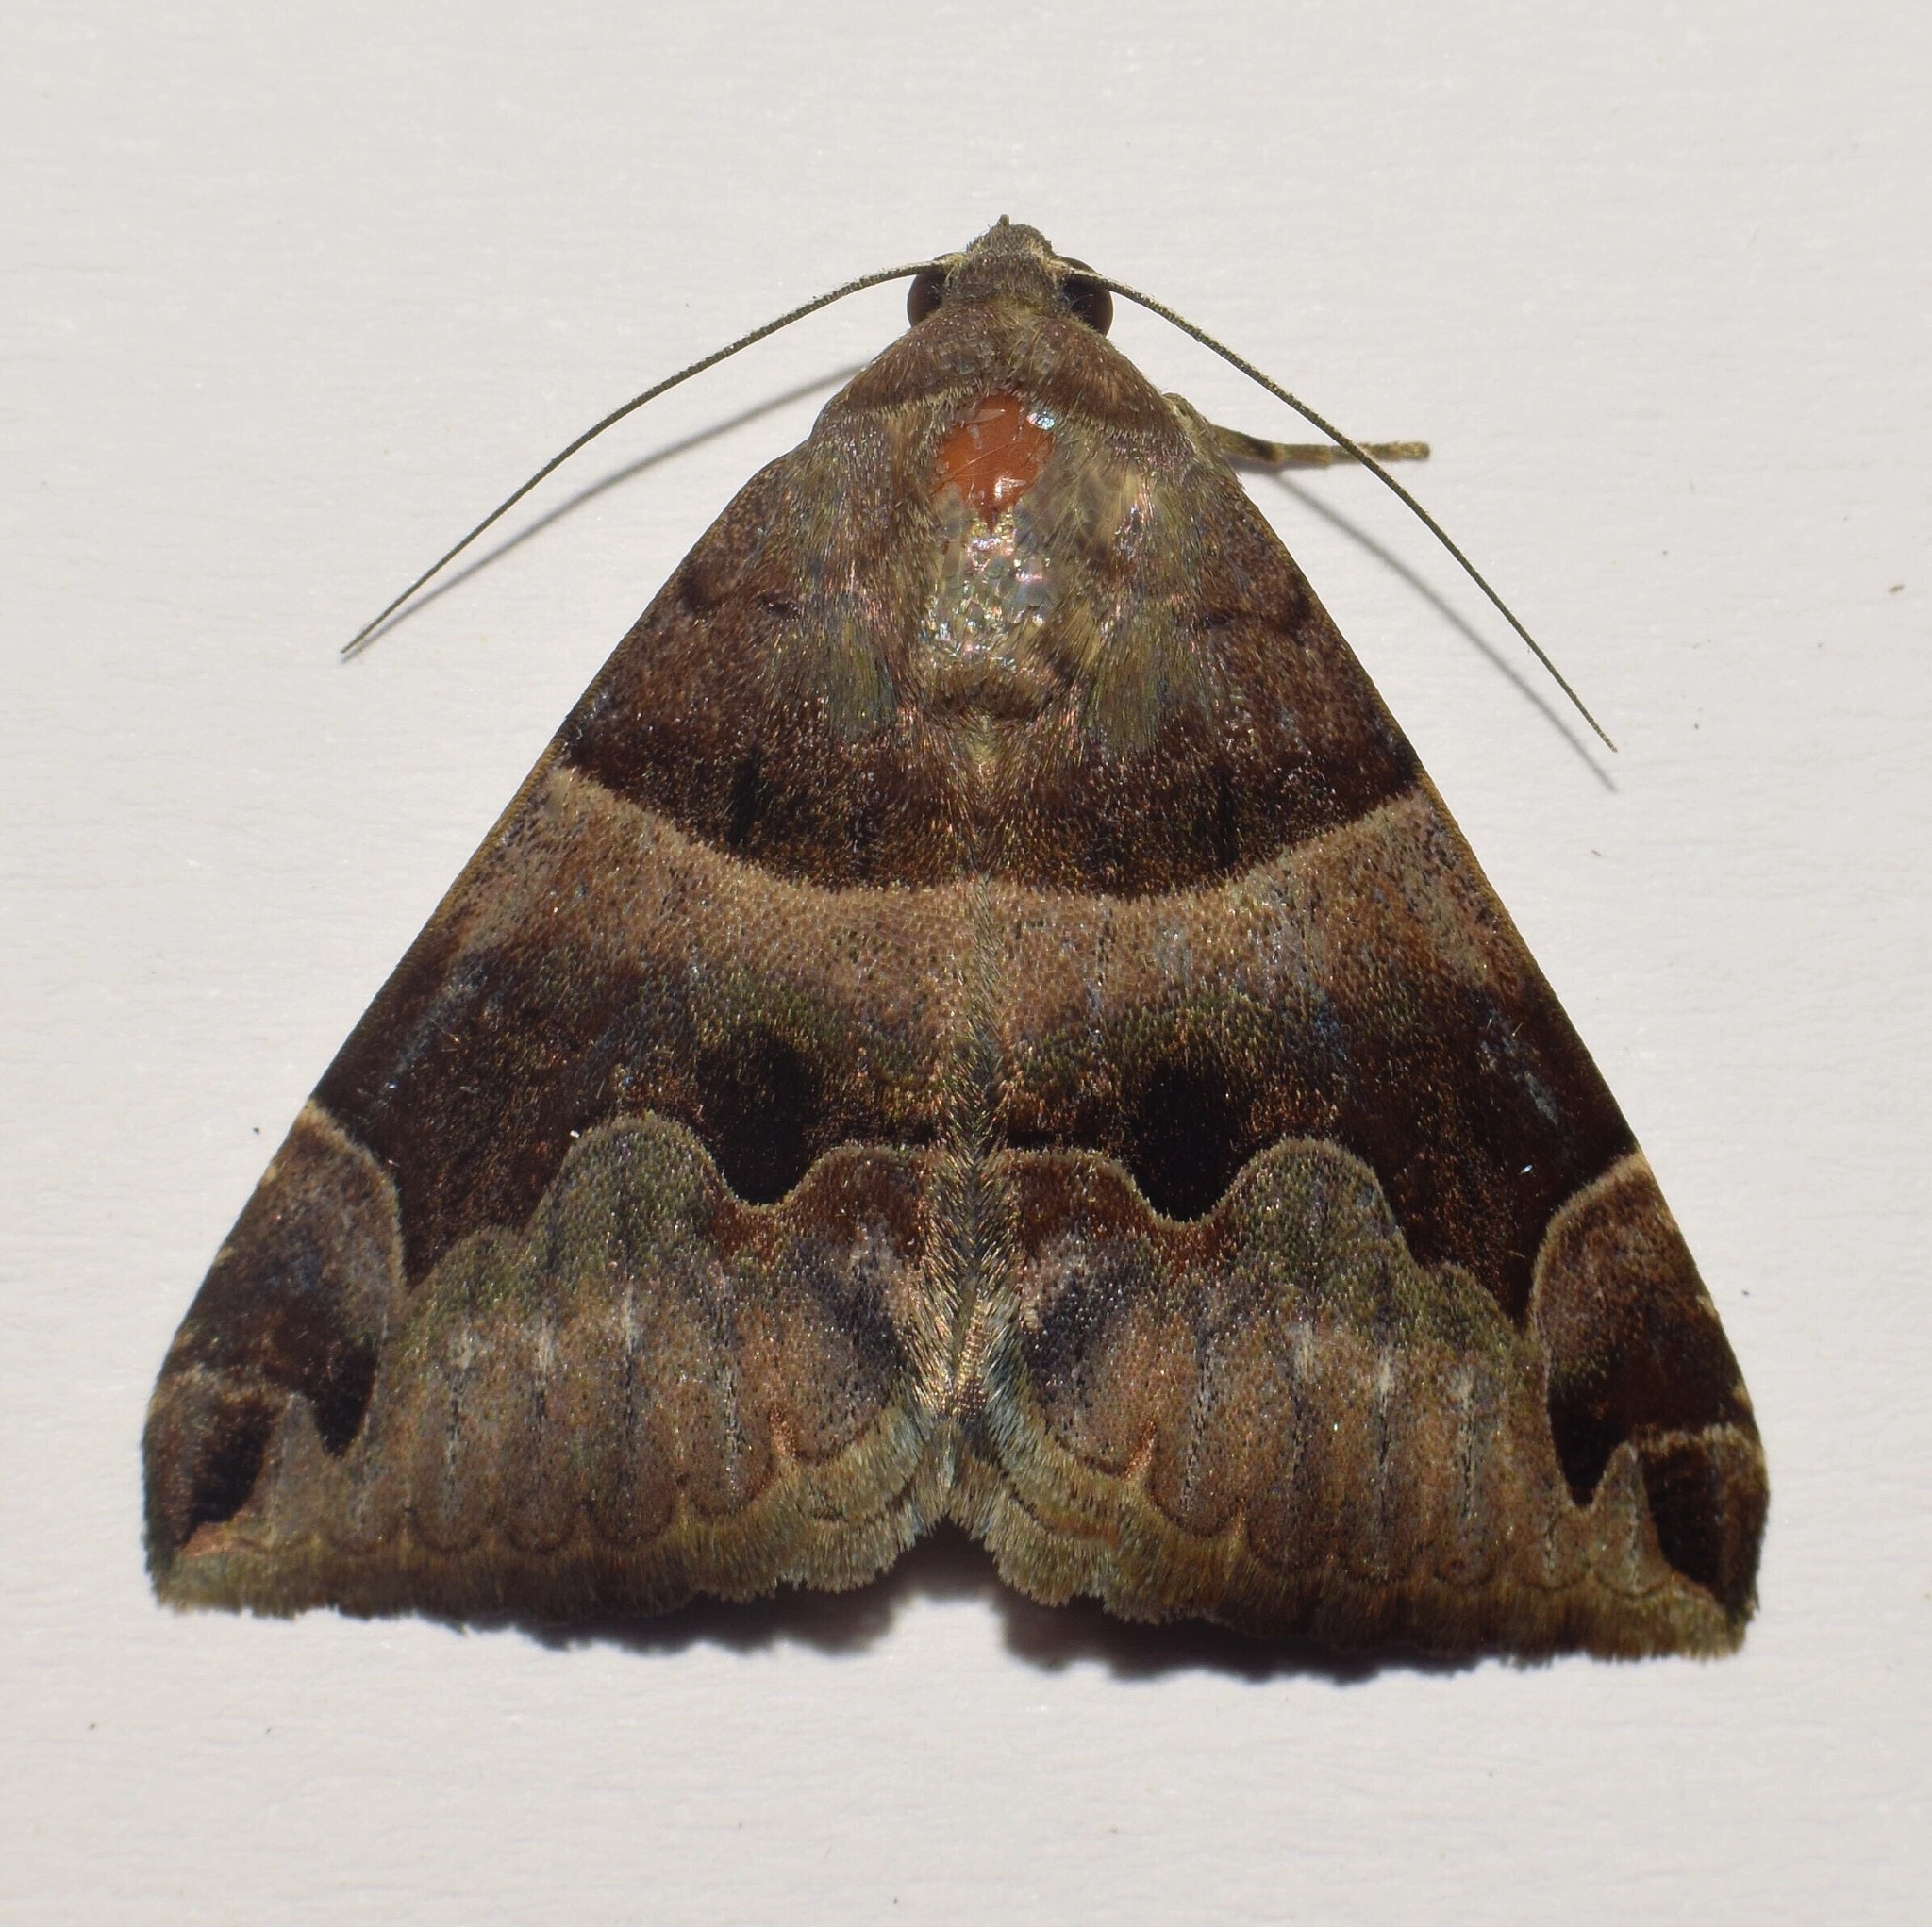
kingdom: Animalia
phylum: Arthropoda
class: Insecta
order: Lepidoptera
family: Erebidae
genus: Dysgonia
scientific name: Dysgonia angularis
